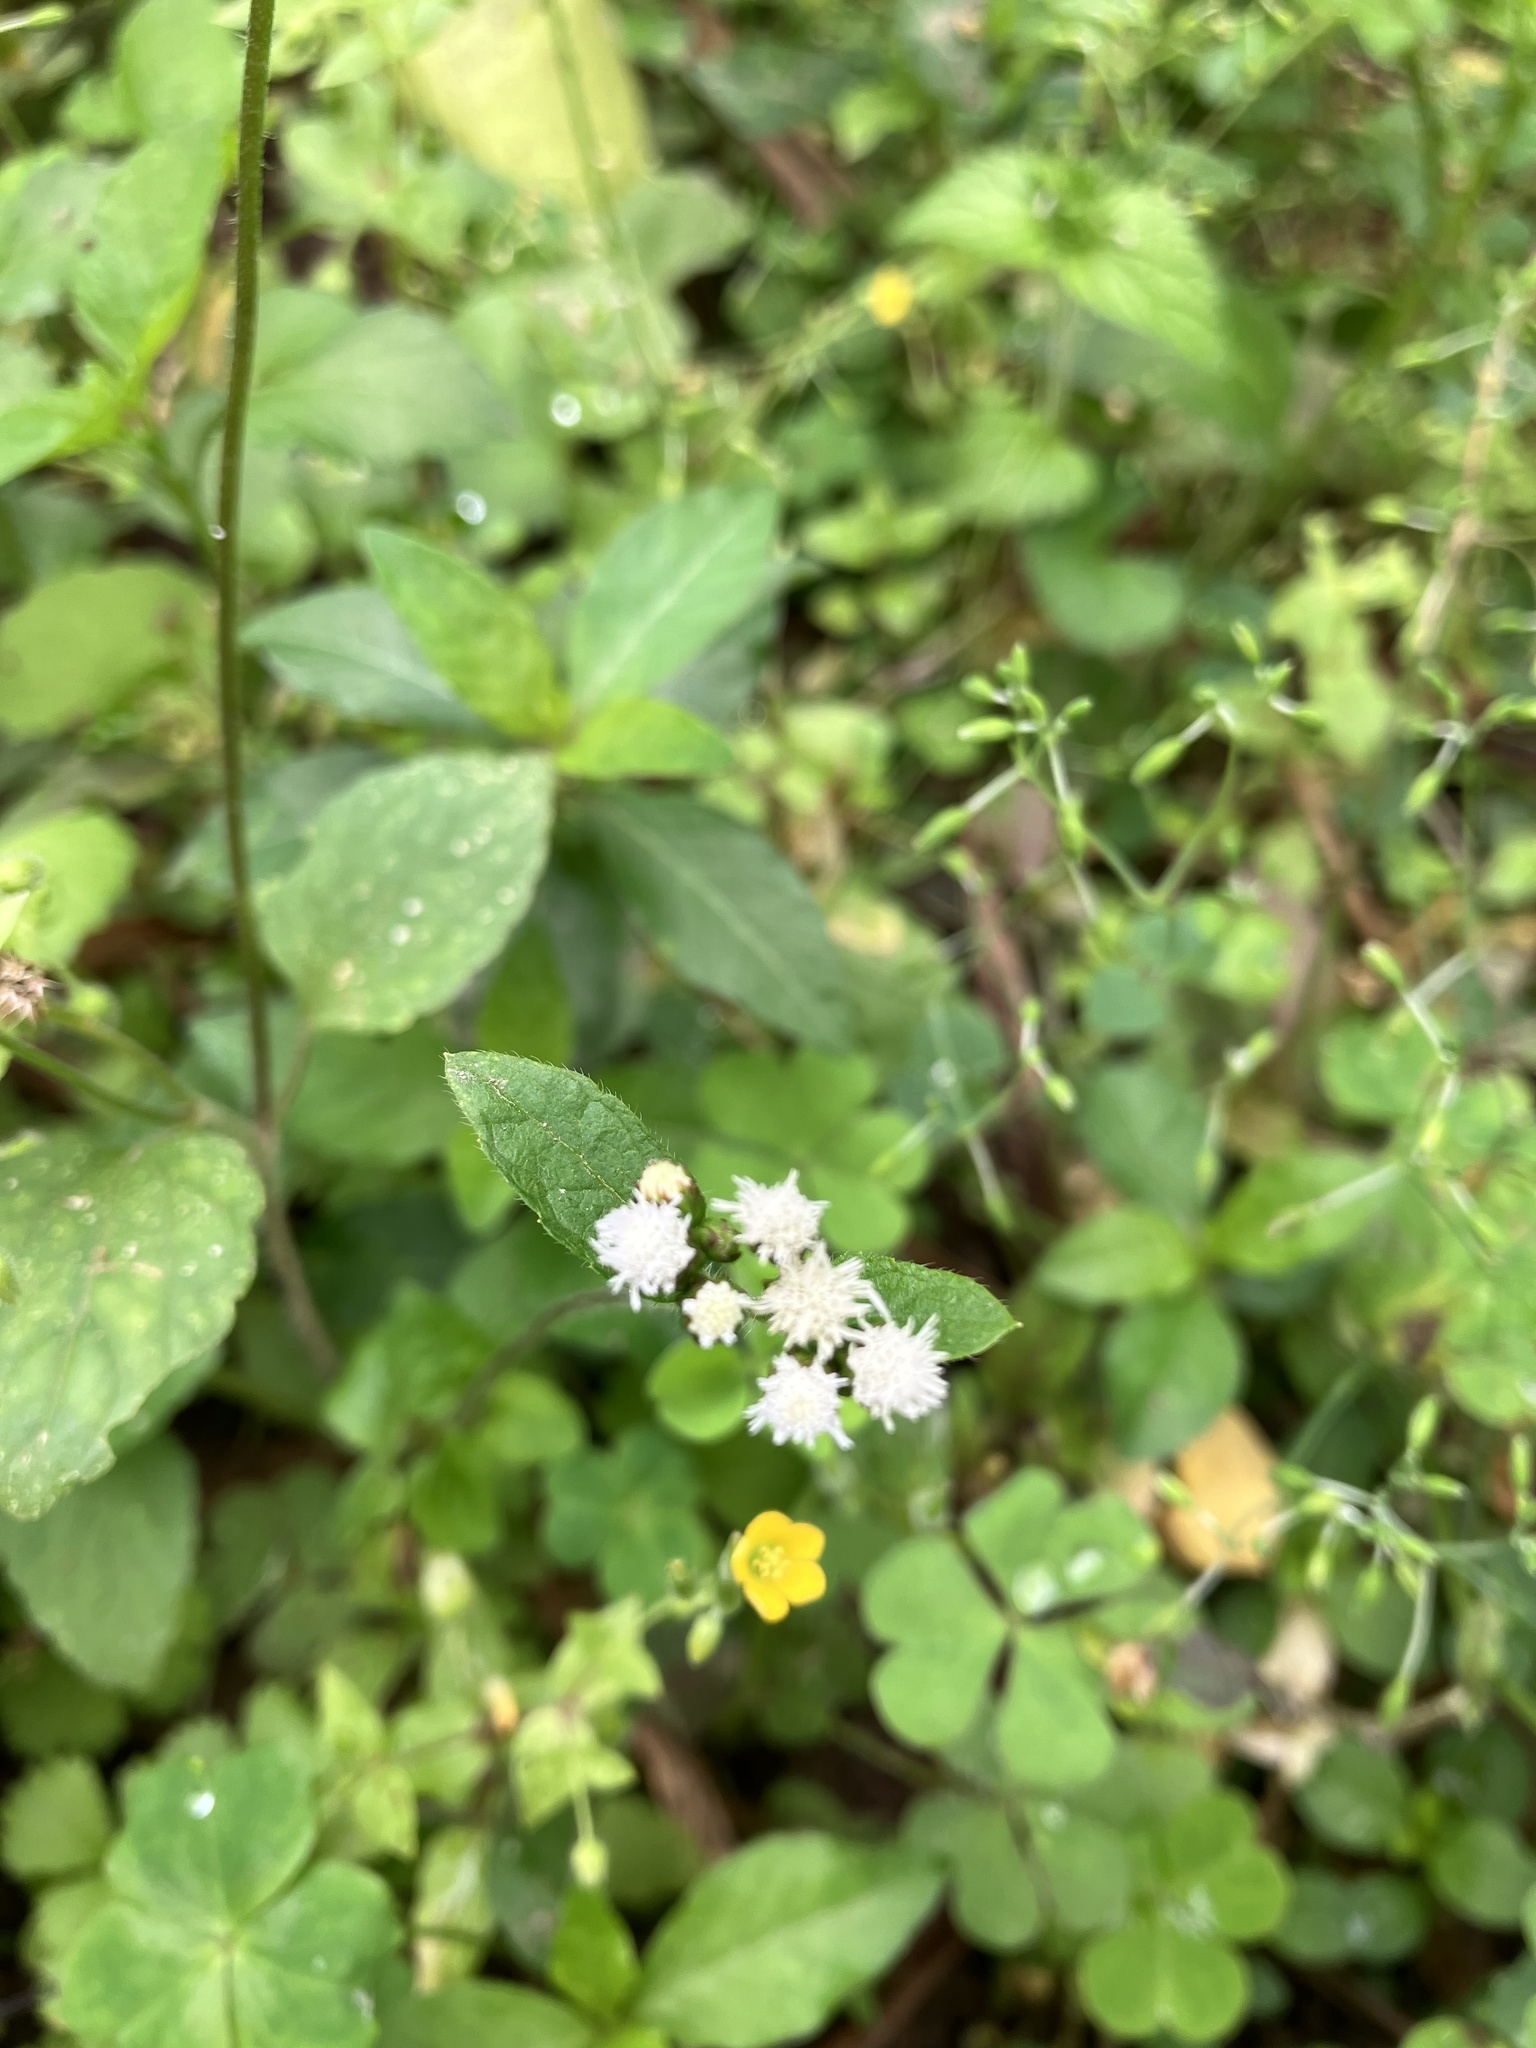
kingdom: Plantae
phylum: Tracheophyta
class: Magnoliopsida
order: Asterales
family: Asteraceae
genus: Ageratum
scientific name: Ageratum conyzoides
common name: Tropical whiteweed
